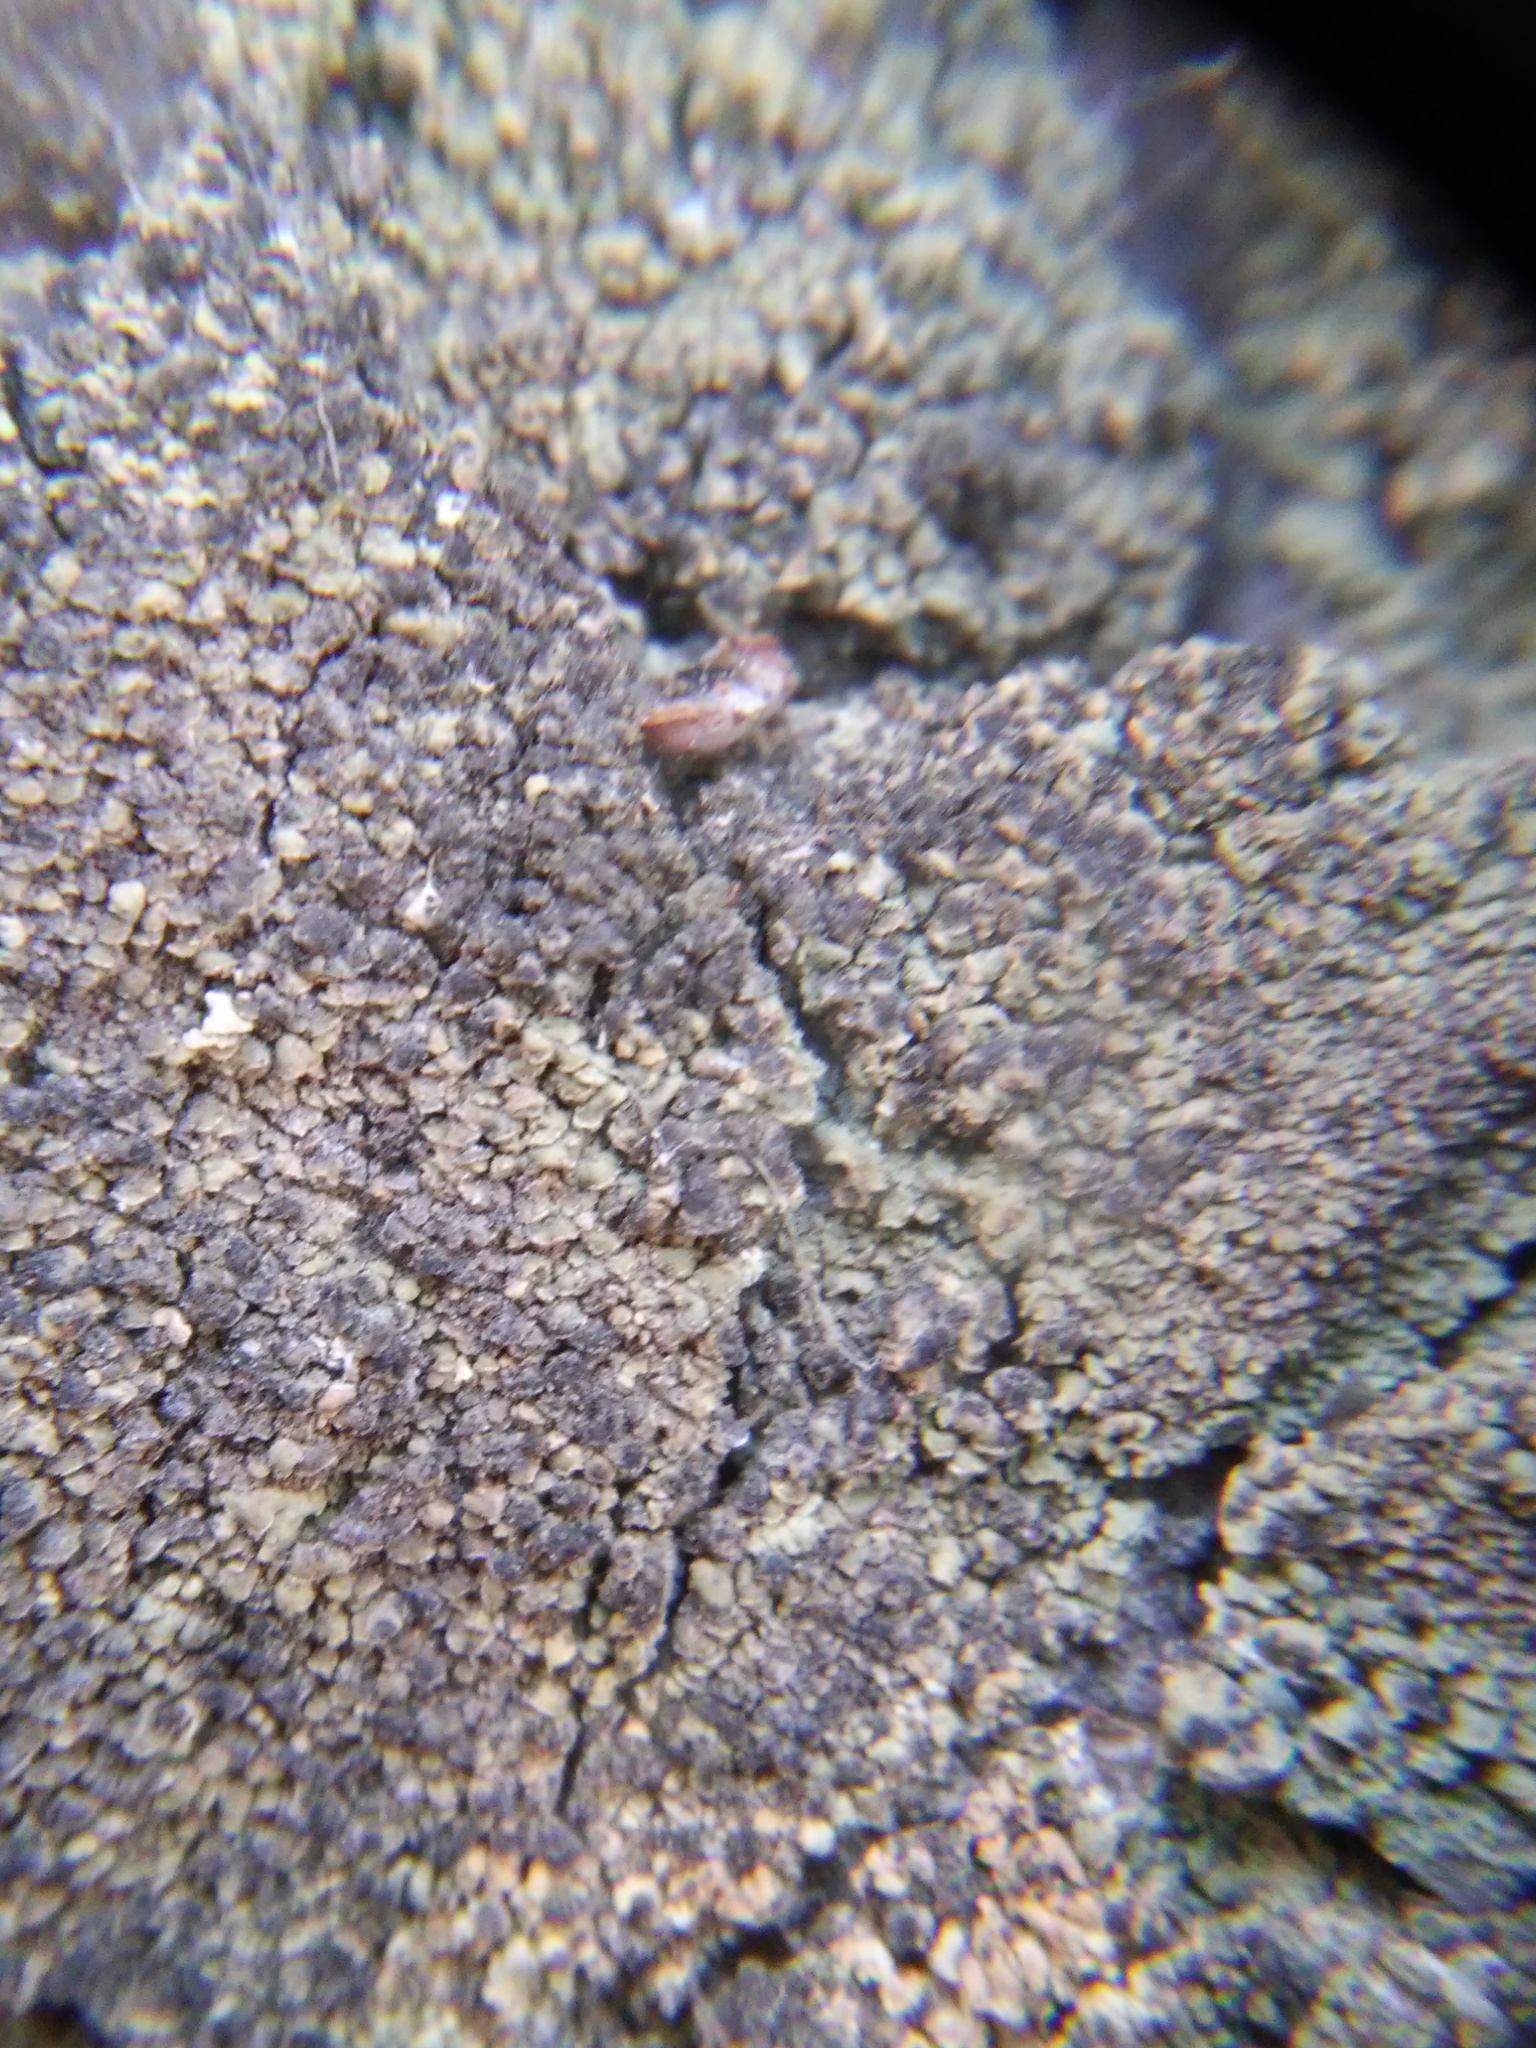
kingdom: Fungi
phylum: Ascomycota
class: Dothideomycetes
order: Trypetheliales
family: Polycoccaceae
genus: Clypeococcum
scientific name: Clypeococcum hypocenomycis
